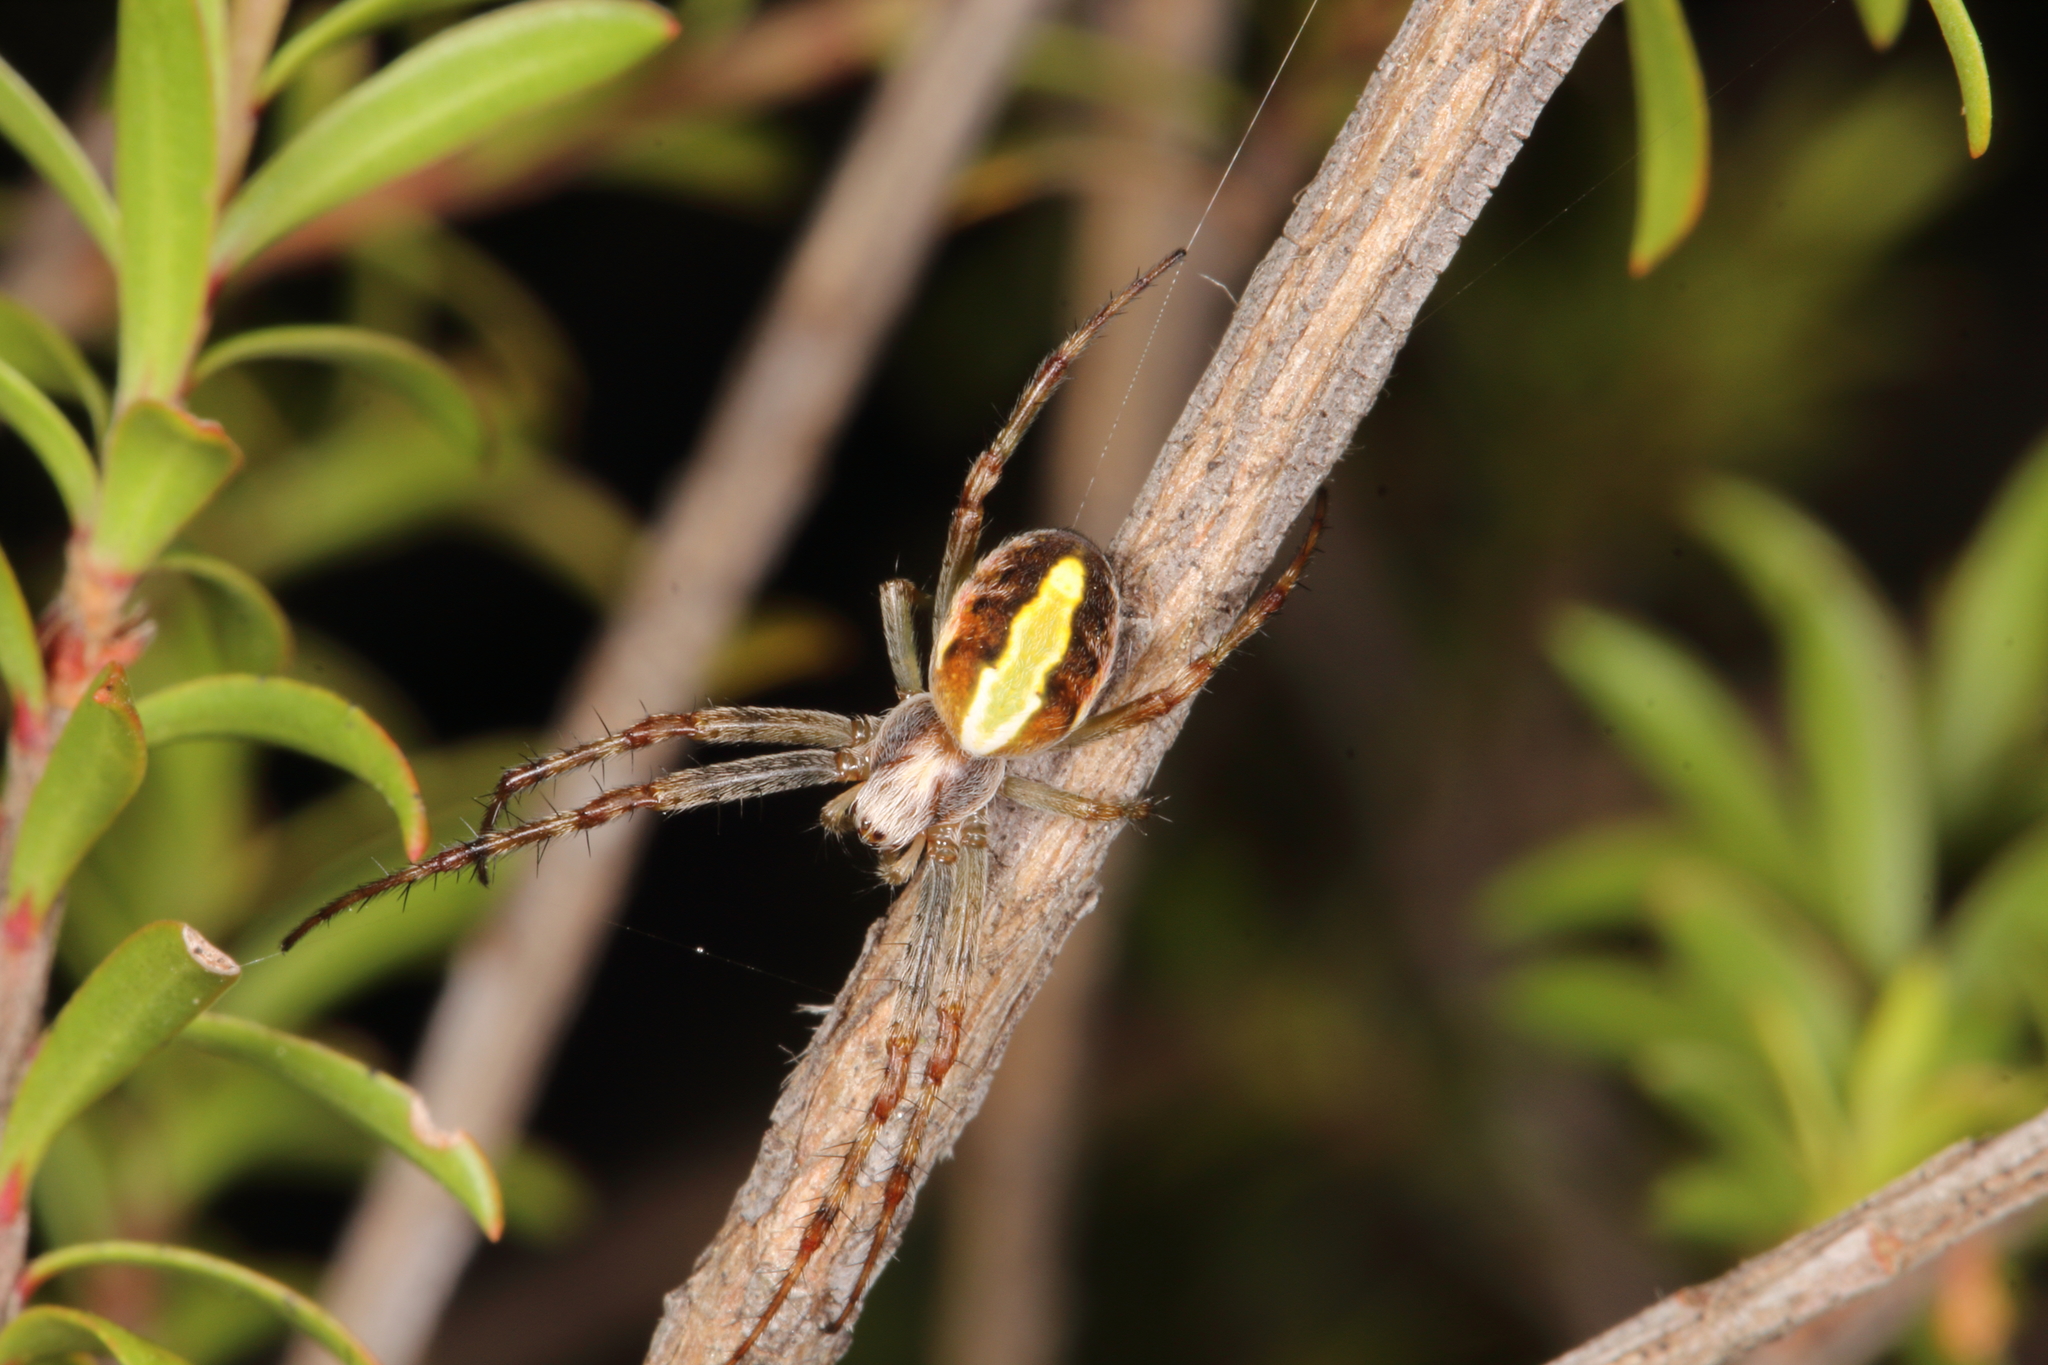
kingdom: Animalia
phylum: Arthropoda
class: Arachnida
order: Araneae
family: Araneidae
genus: Novaranea
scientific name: Novaranea queribunda
